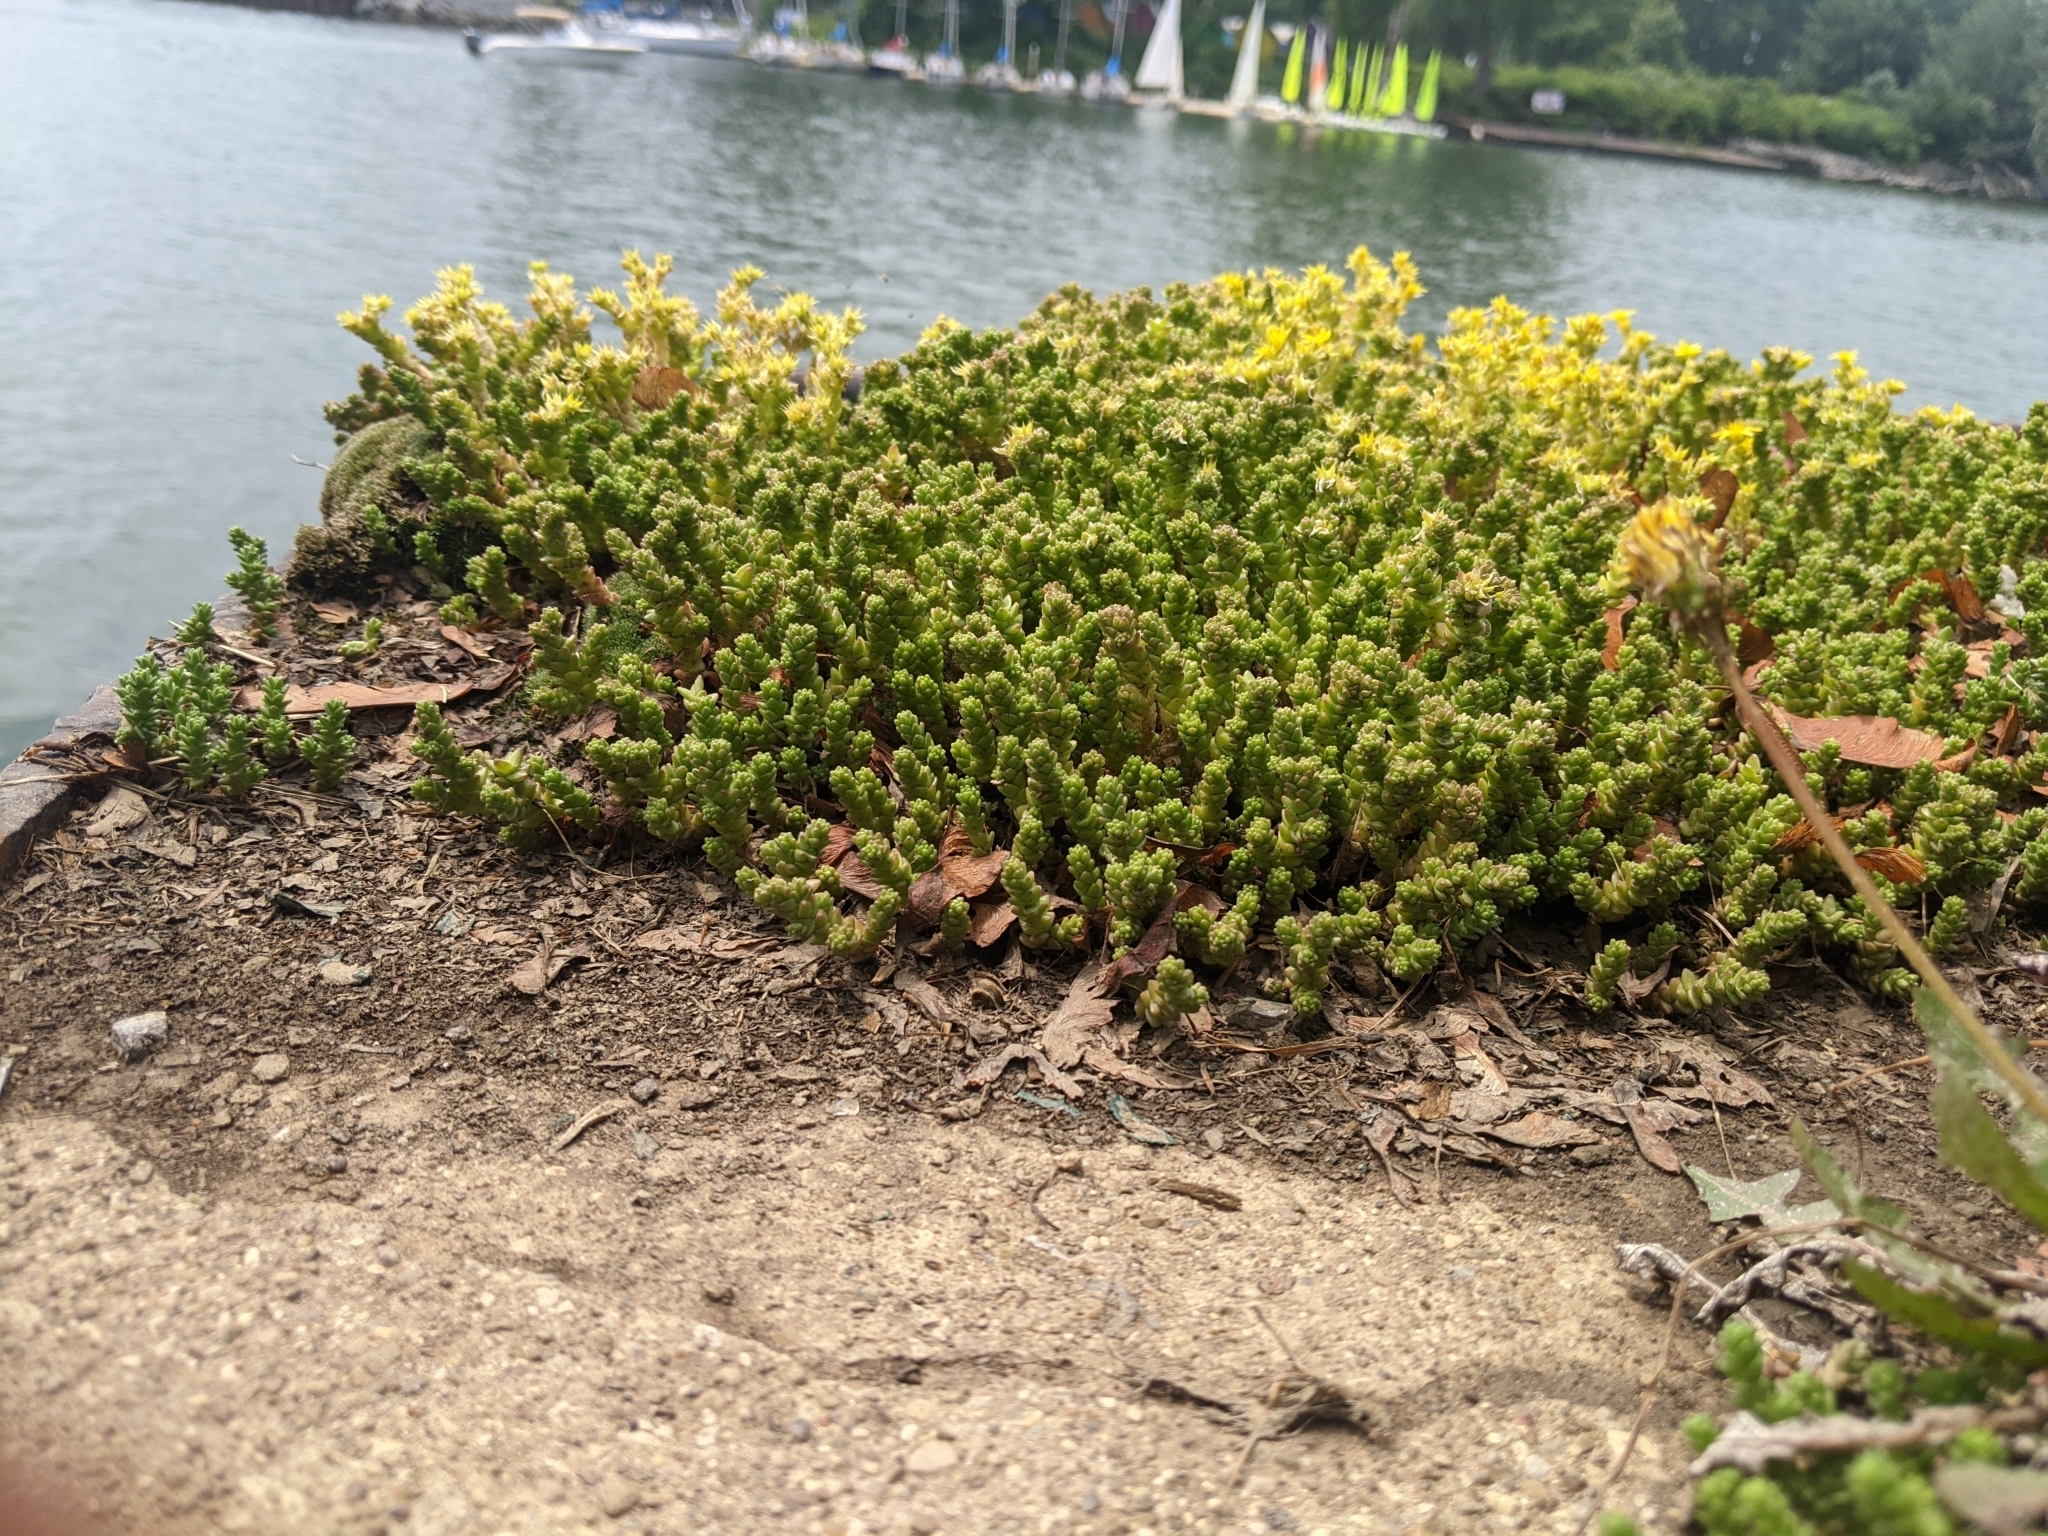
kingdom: Plantae
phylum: Tracheophyta
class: Magnoliopsida
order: Saxifragales
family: Crassulaceae
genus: Sedum
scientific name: Sedum acre
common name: Biting stonecrop
